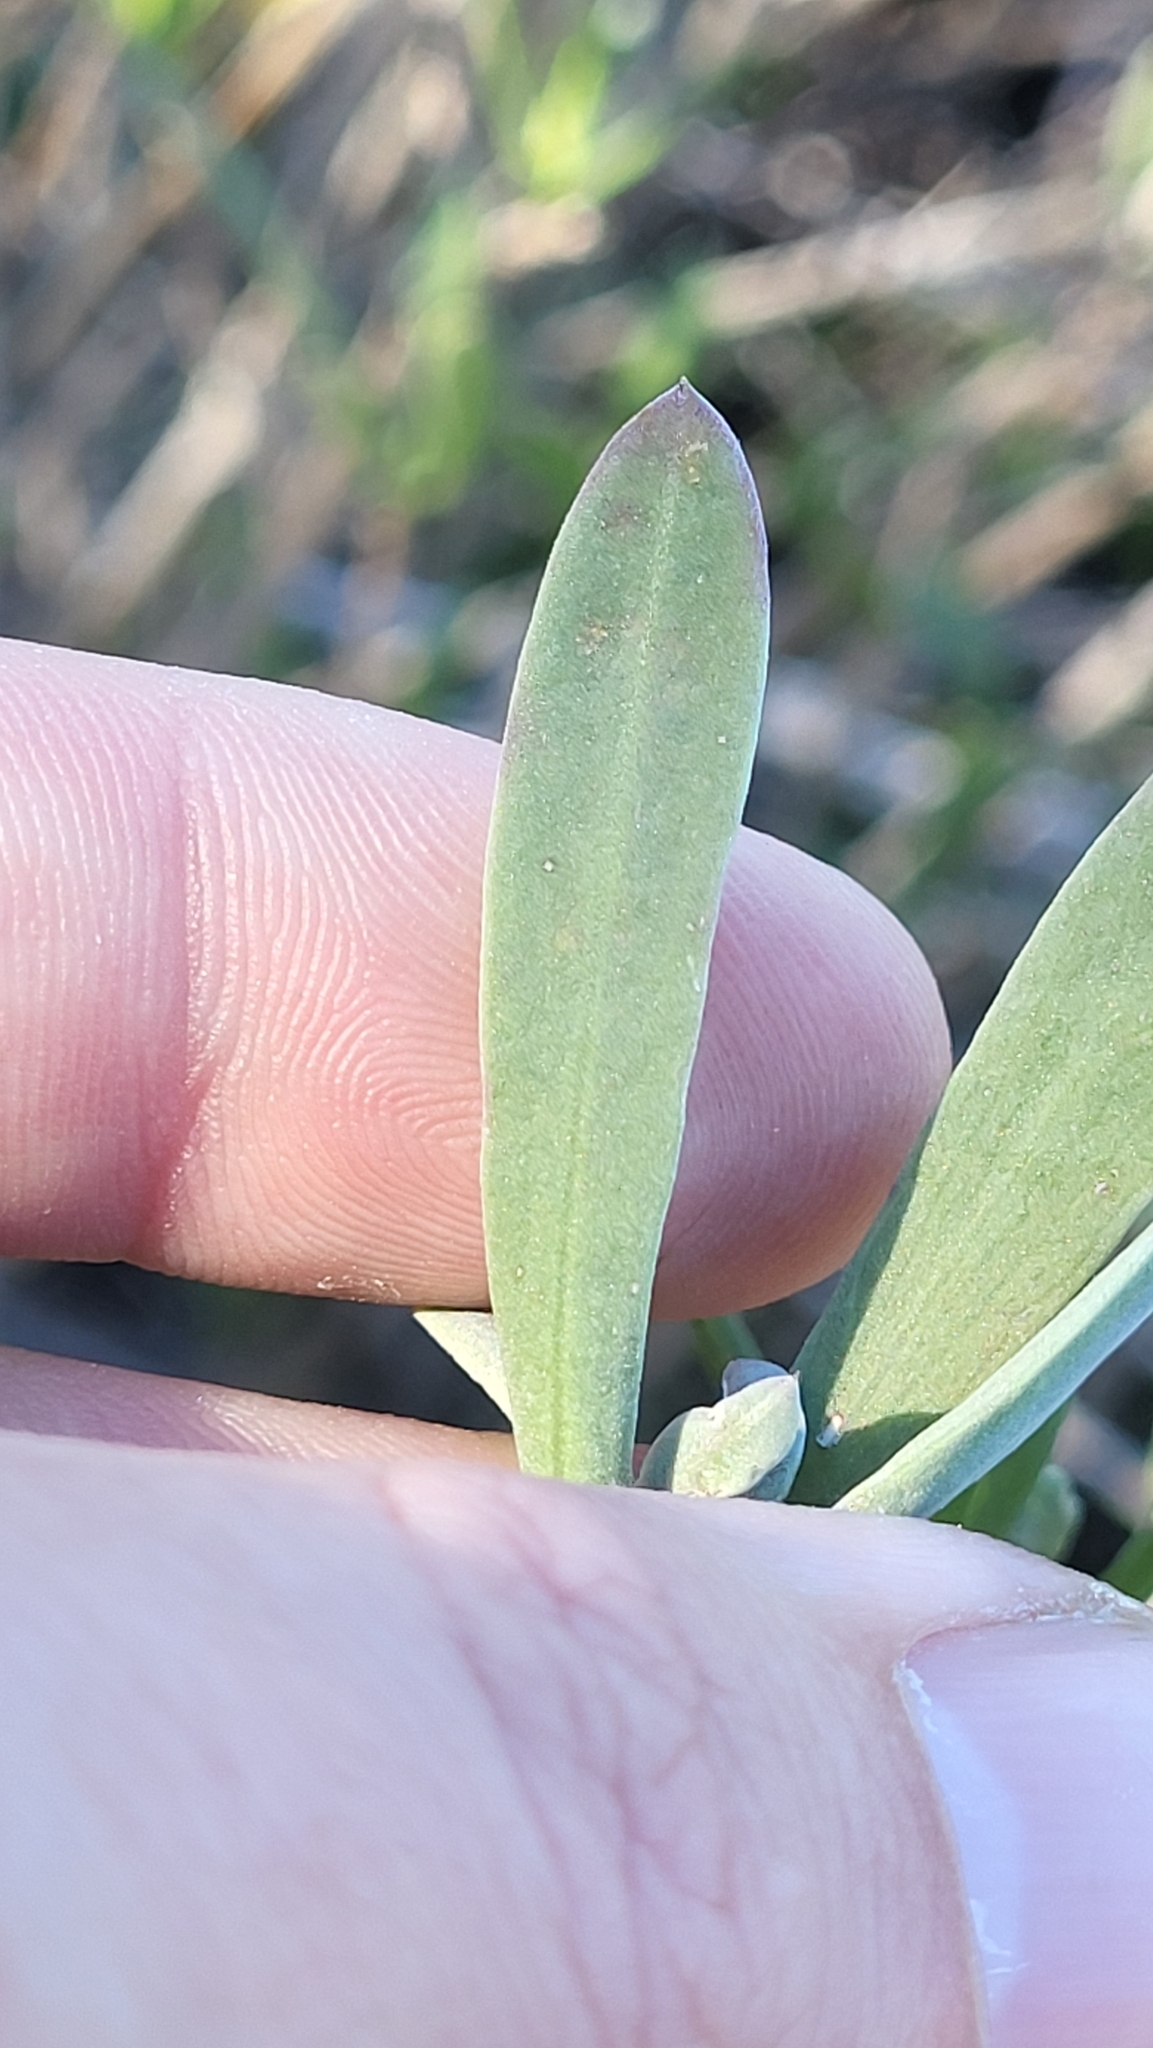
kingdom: Plantae
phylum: Tracheophyta
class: Magnoliopsida
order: Asterales
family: Asteraceae
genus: Borrichia
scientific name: Borrichia frutescens
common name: Sea oxeye
